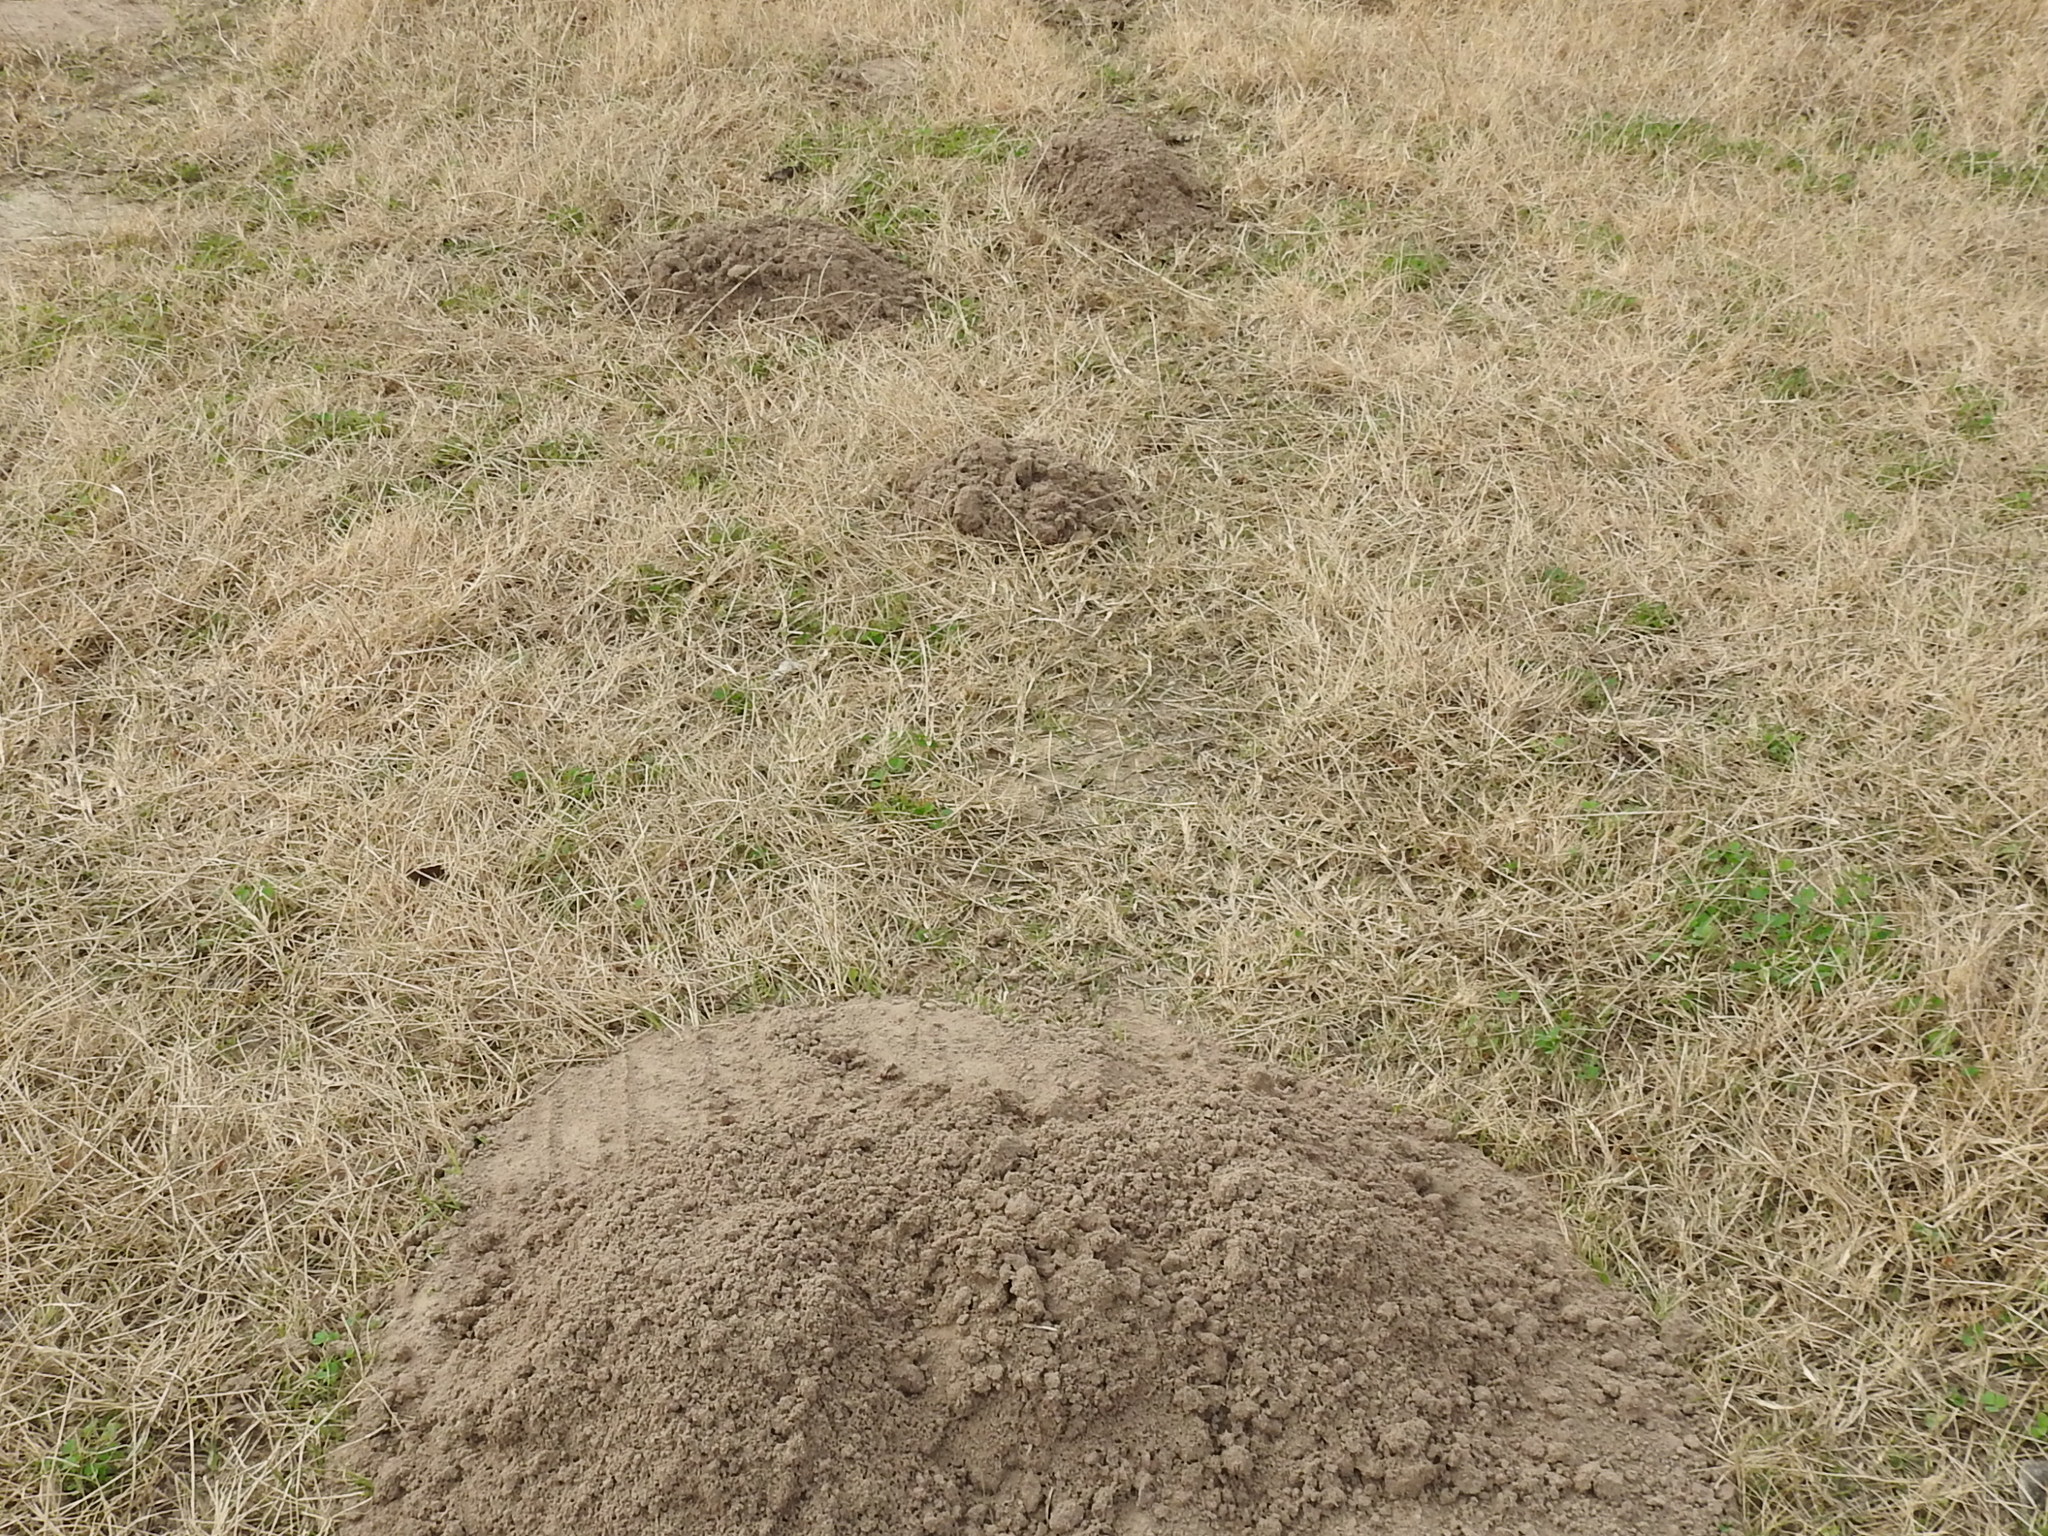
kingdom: Animalia
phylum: Chordata
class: Mammalia
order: Rodentia
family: Geomyidae
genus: Geomys
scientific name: Geomys attwateri
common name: Attwater's pocket gopher
